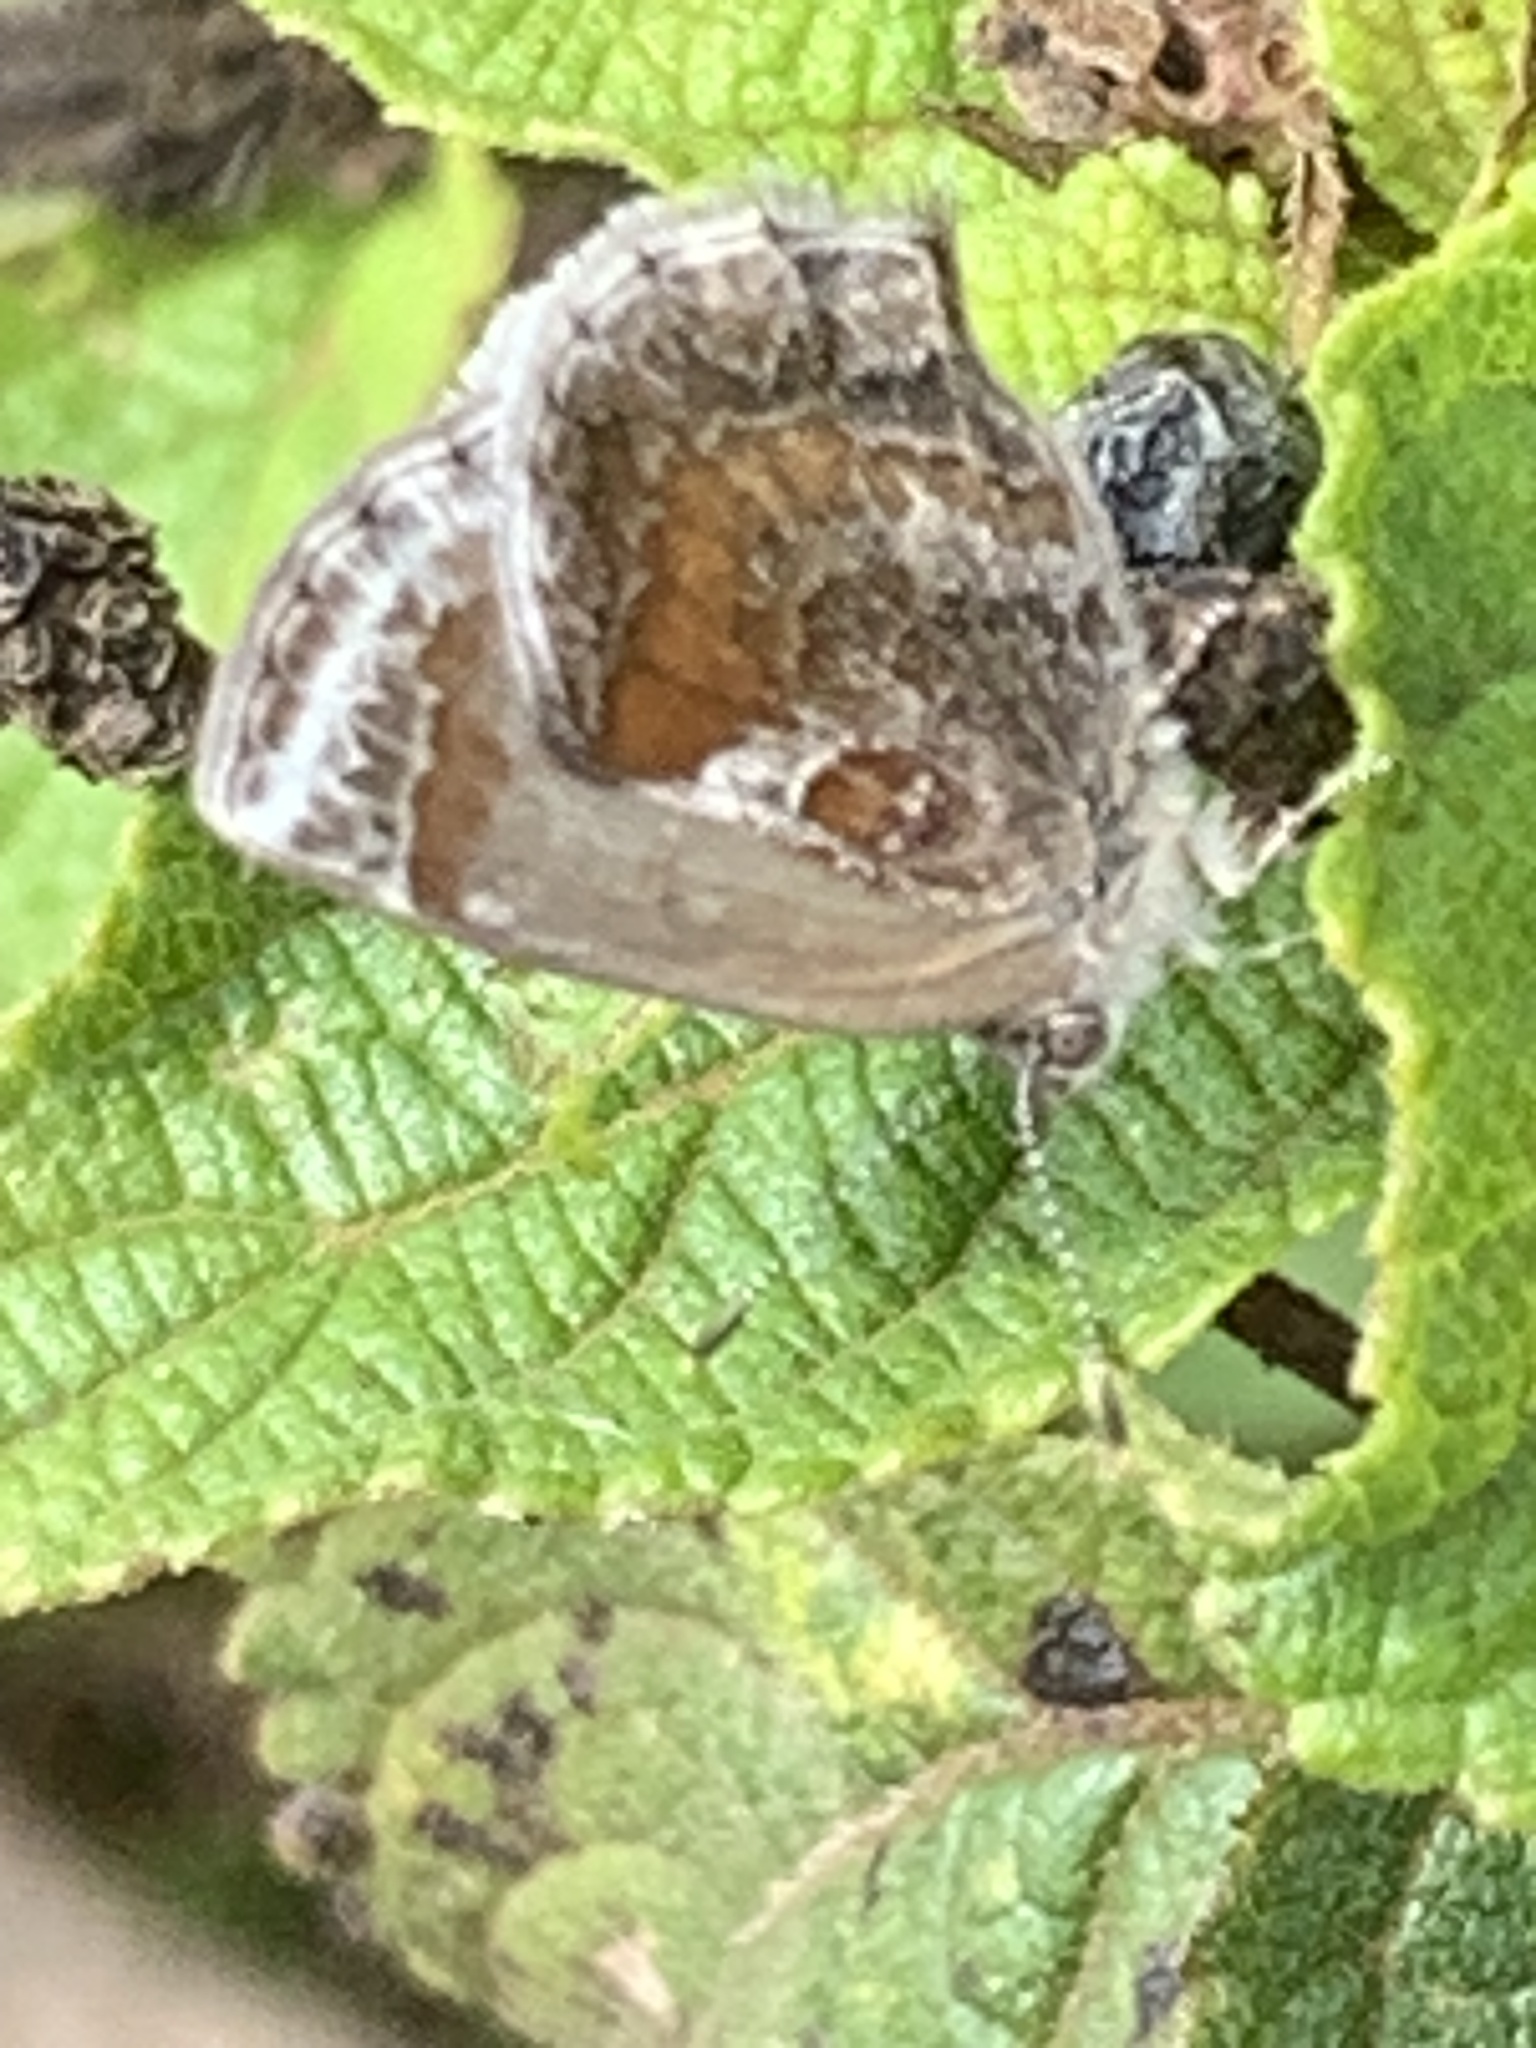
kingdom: Animalia
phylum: Arthropoda
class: Insecta
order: Lepidoptera
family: Lycaenidae
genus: Strymon
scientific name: Strymon bazochii
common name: Lantana scrub-hairstreak
